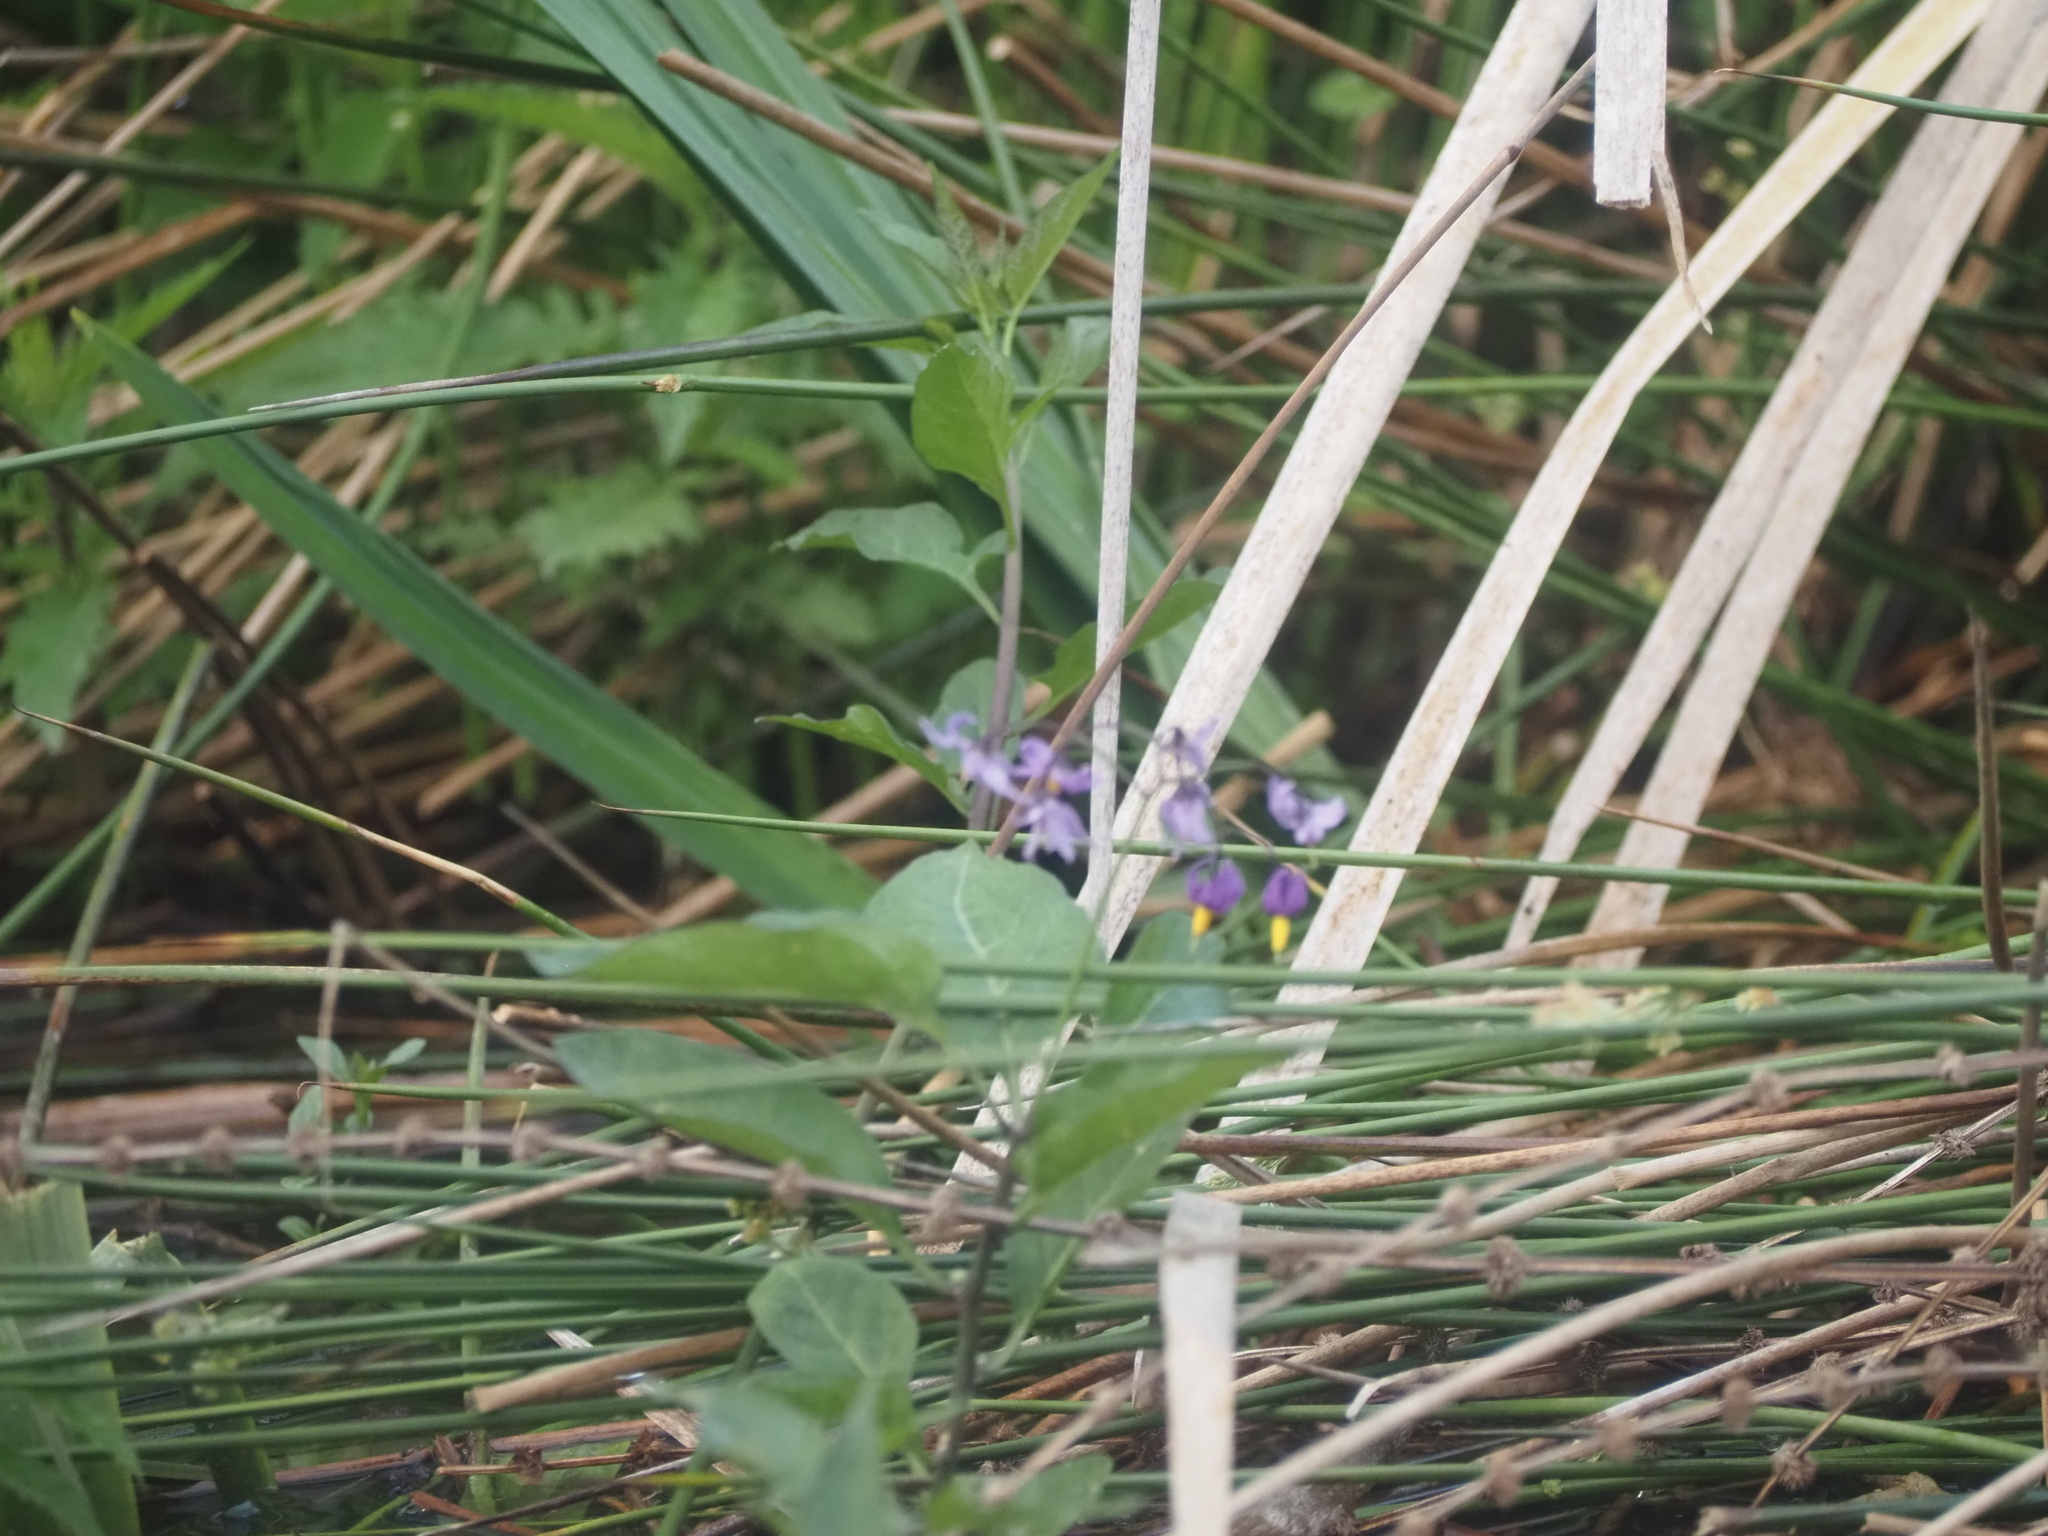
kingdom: Plantae
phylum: Tracheophyta
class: Magnoliopsida
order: Solanales
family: Solanaceae
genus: Solanum
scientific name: Solanum dulcamara
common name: Climbing nightshade
